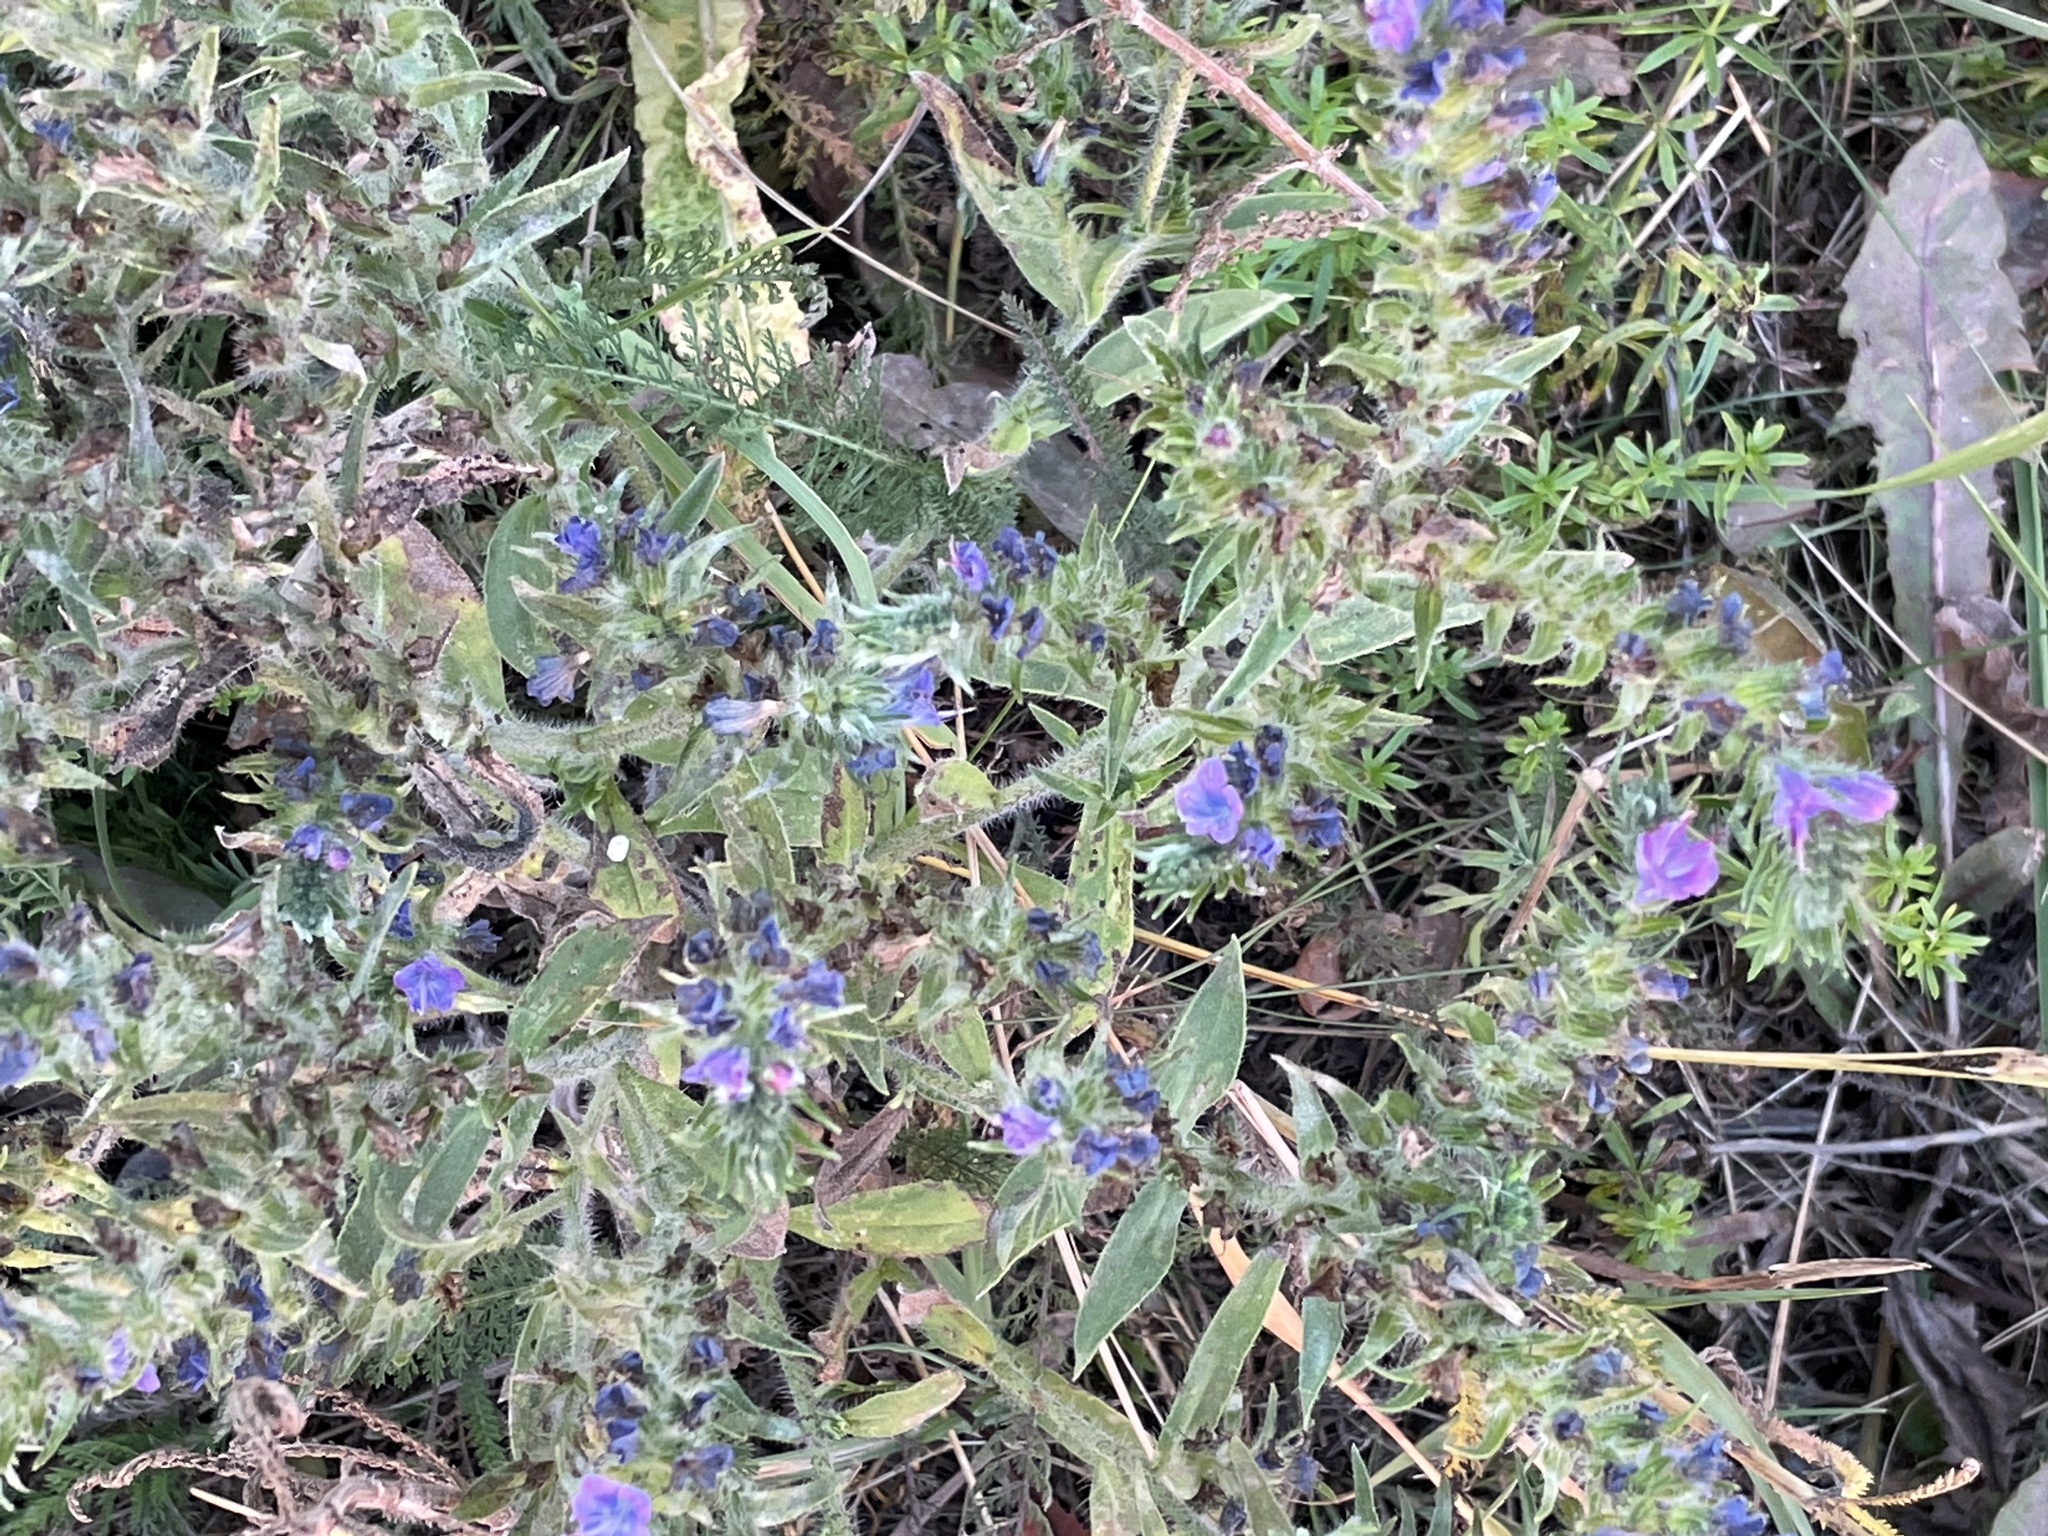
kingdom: Plantae
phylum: Tracheophyta
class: Magnoliopsida
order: Boraginales
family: Boraginaceae
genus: Echium
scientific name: Echium vulgare
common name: Common viper's bugloss
